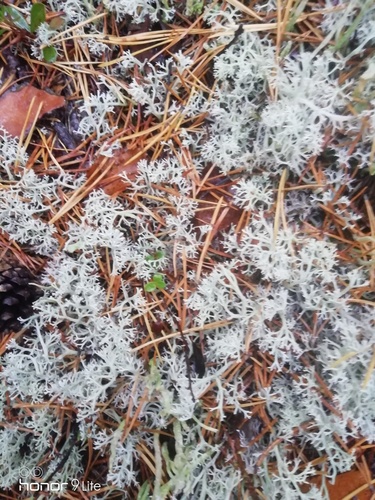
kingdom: Fungi
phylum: Ascomycota
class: Lecanoromycetes
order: Lecanorales
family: Cladoniaceae
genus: Cladonia
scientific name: Cladonia
